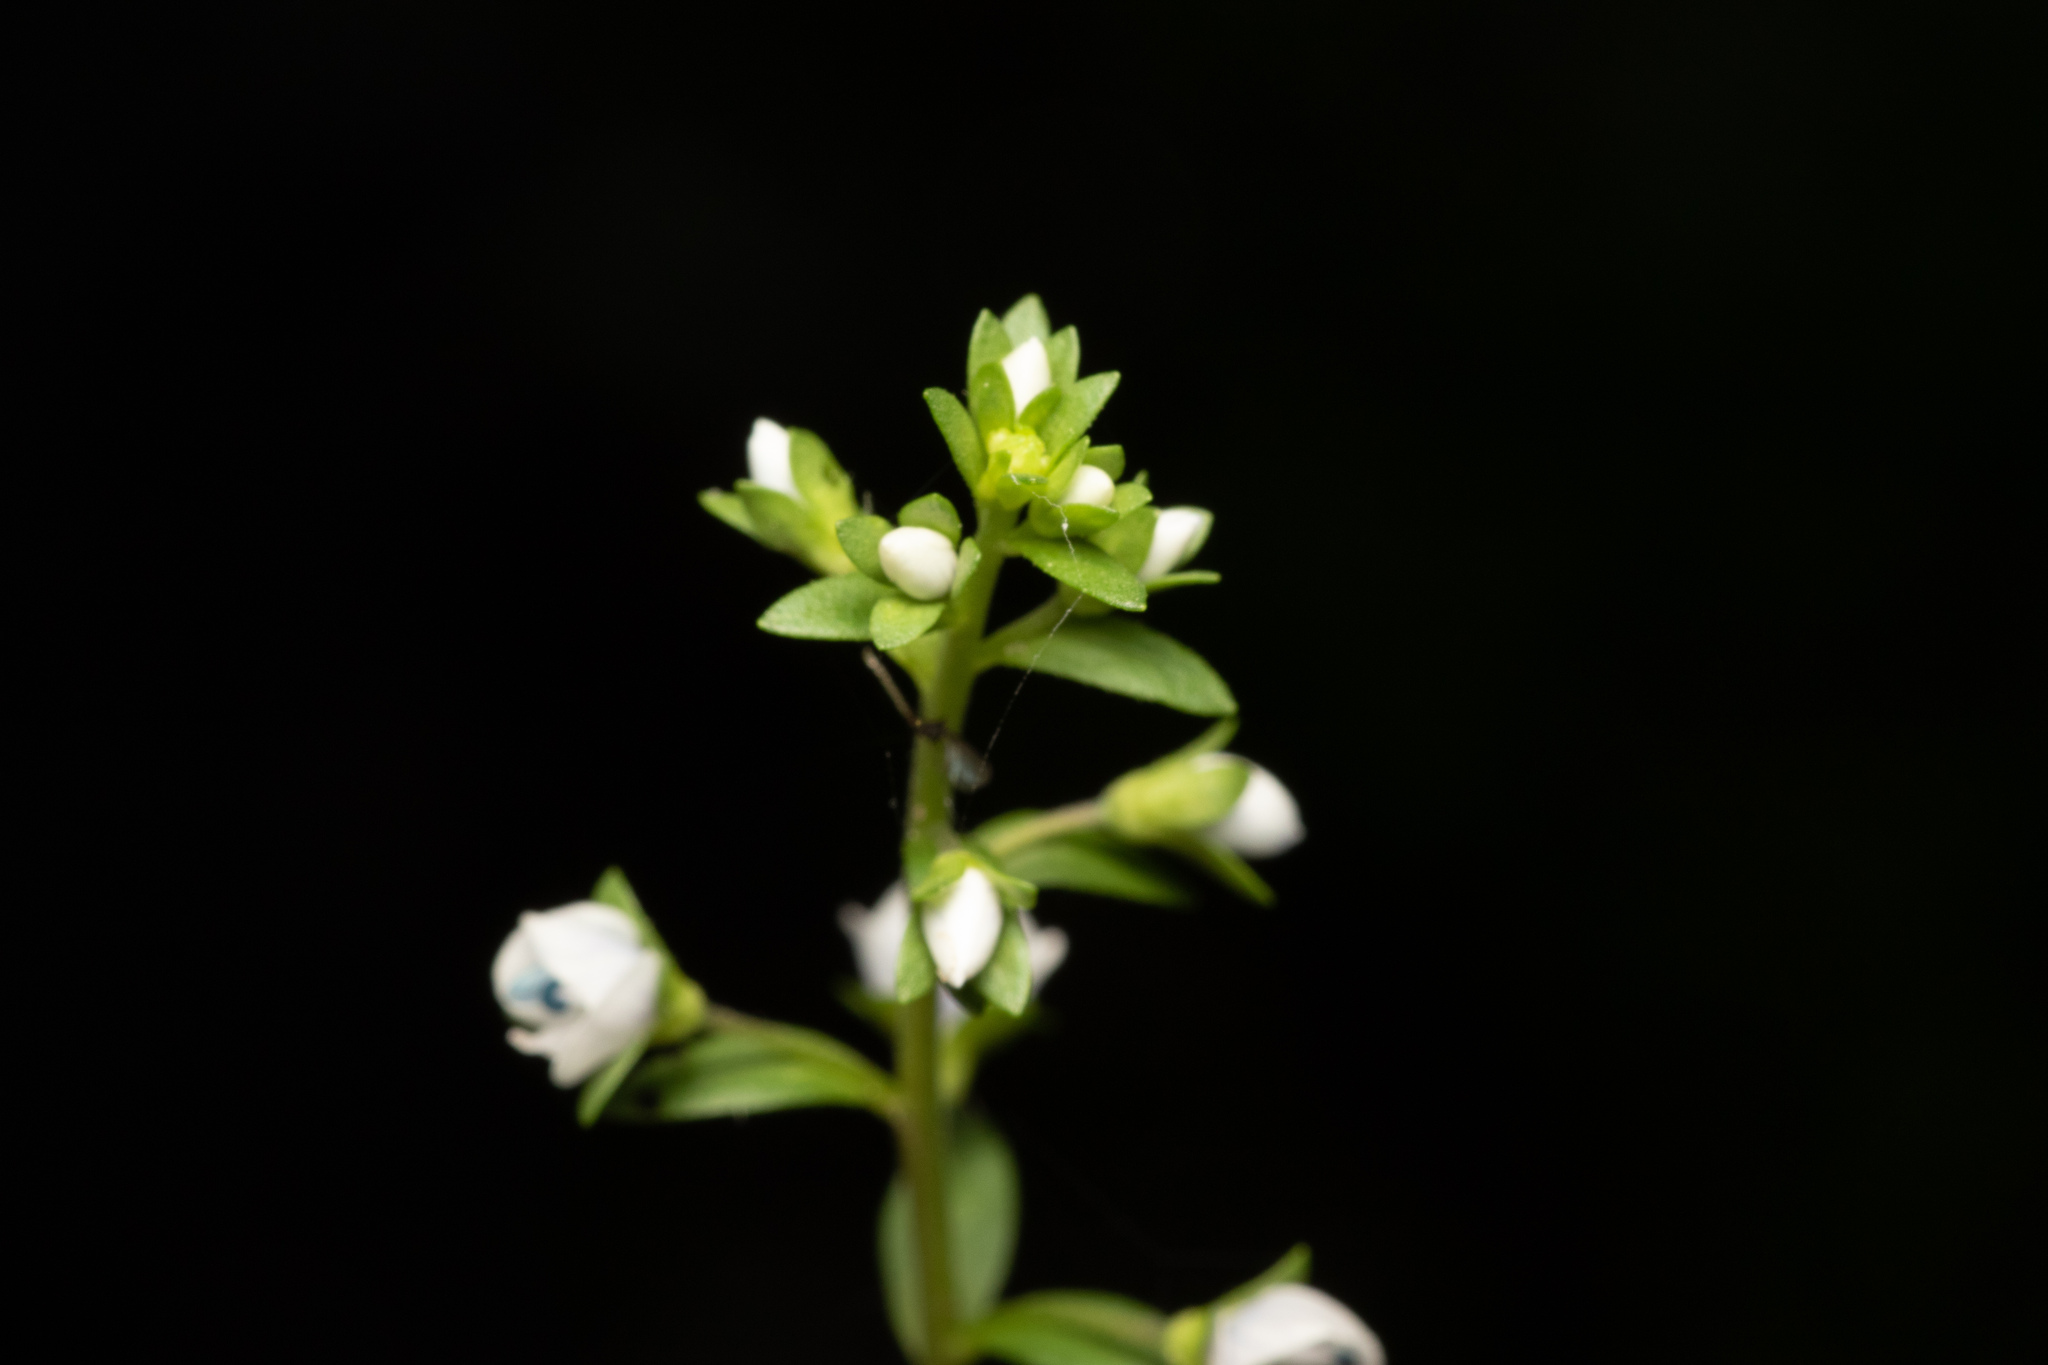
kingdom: Plantae
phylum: Tracheophyta
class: Magnoliopsida
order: Lamiales
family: Plantaginaceae
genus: Veronica
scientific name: Veronica serpyllifolia
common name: Thyme-leaved speedwell
